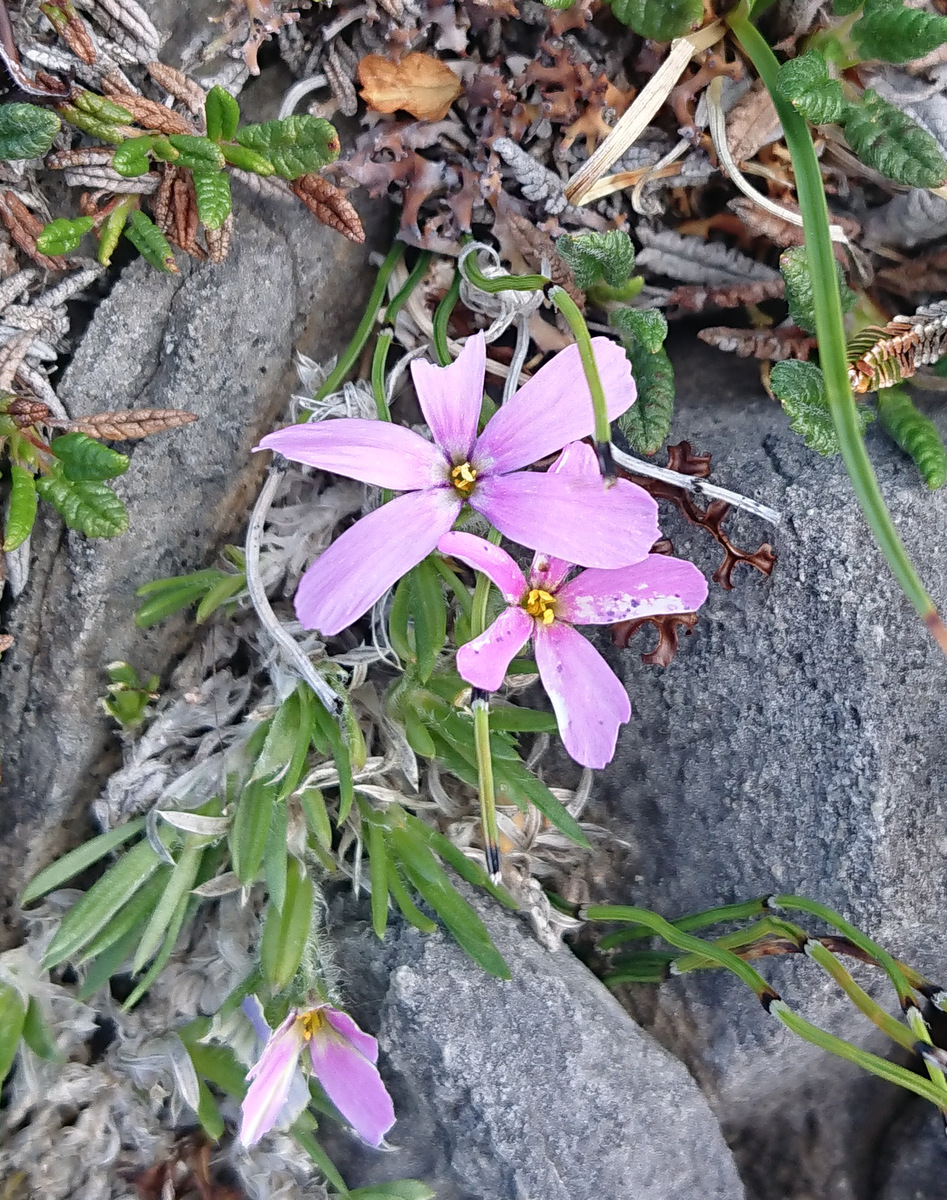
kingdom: Plantae
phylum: Tracheophyta
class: Magnoliopsida
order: Ericales
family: Polemoniaceae
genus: Phlox
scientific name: Phlox richardsonii
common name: Richardson's phlox
